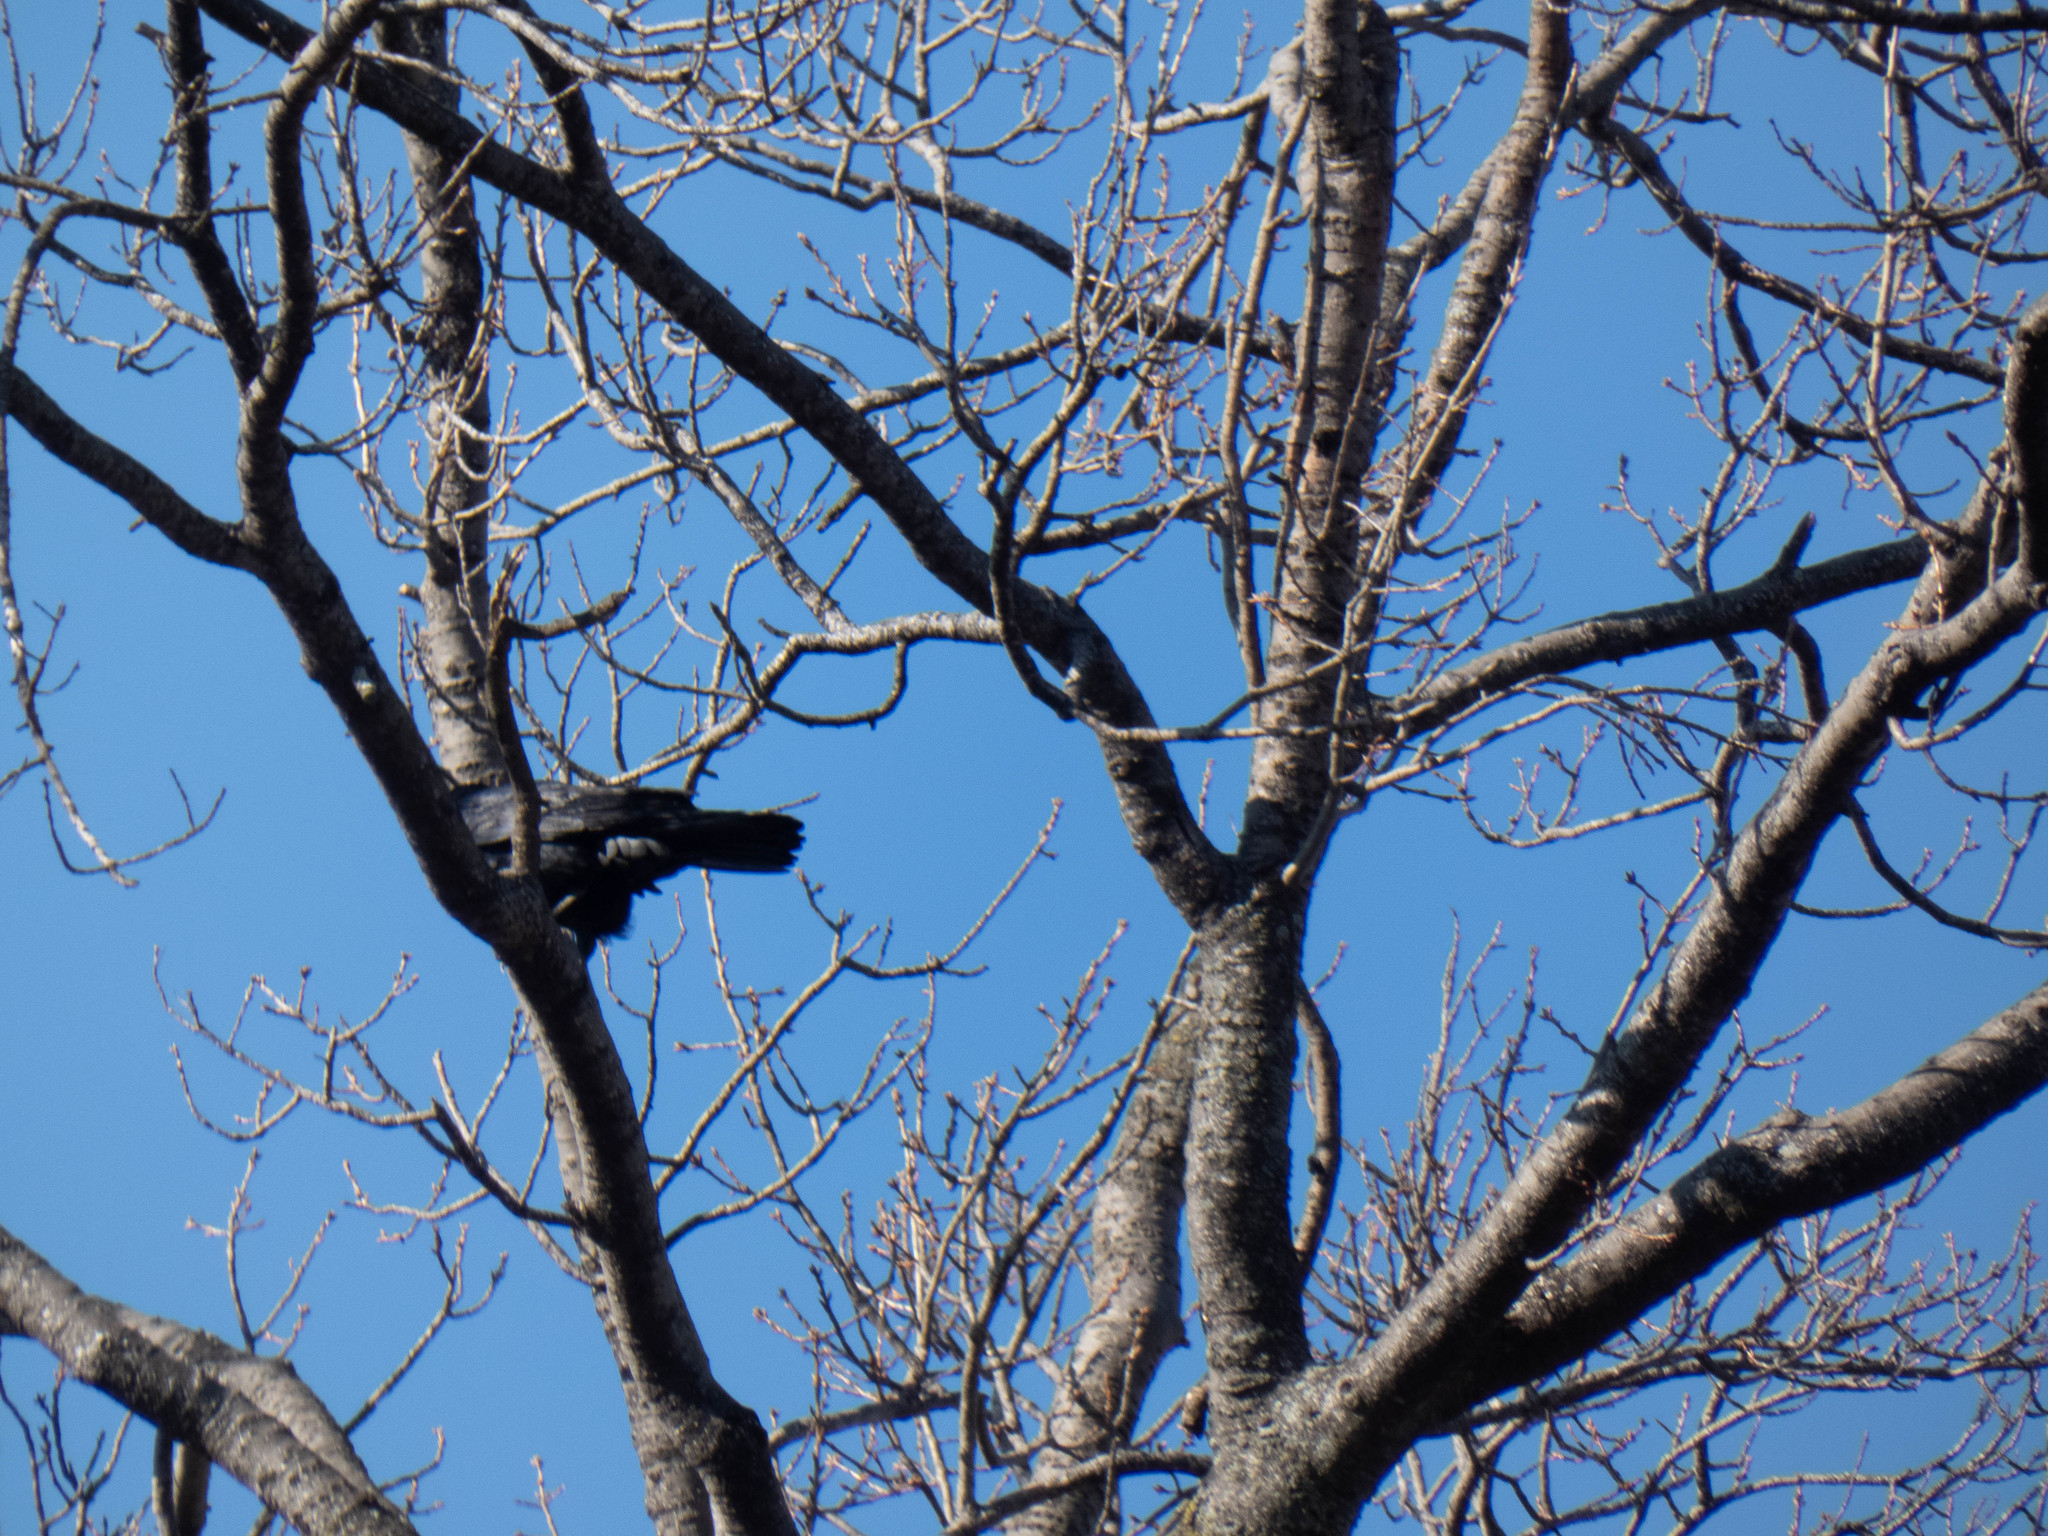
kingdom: Animalia
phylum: Chordata
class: Aves
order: Passeriformes
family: Corvidae
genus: Corvus
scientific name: Corvus brachyrhynchos
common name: American crow
